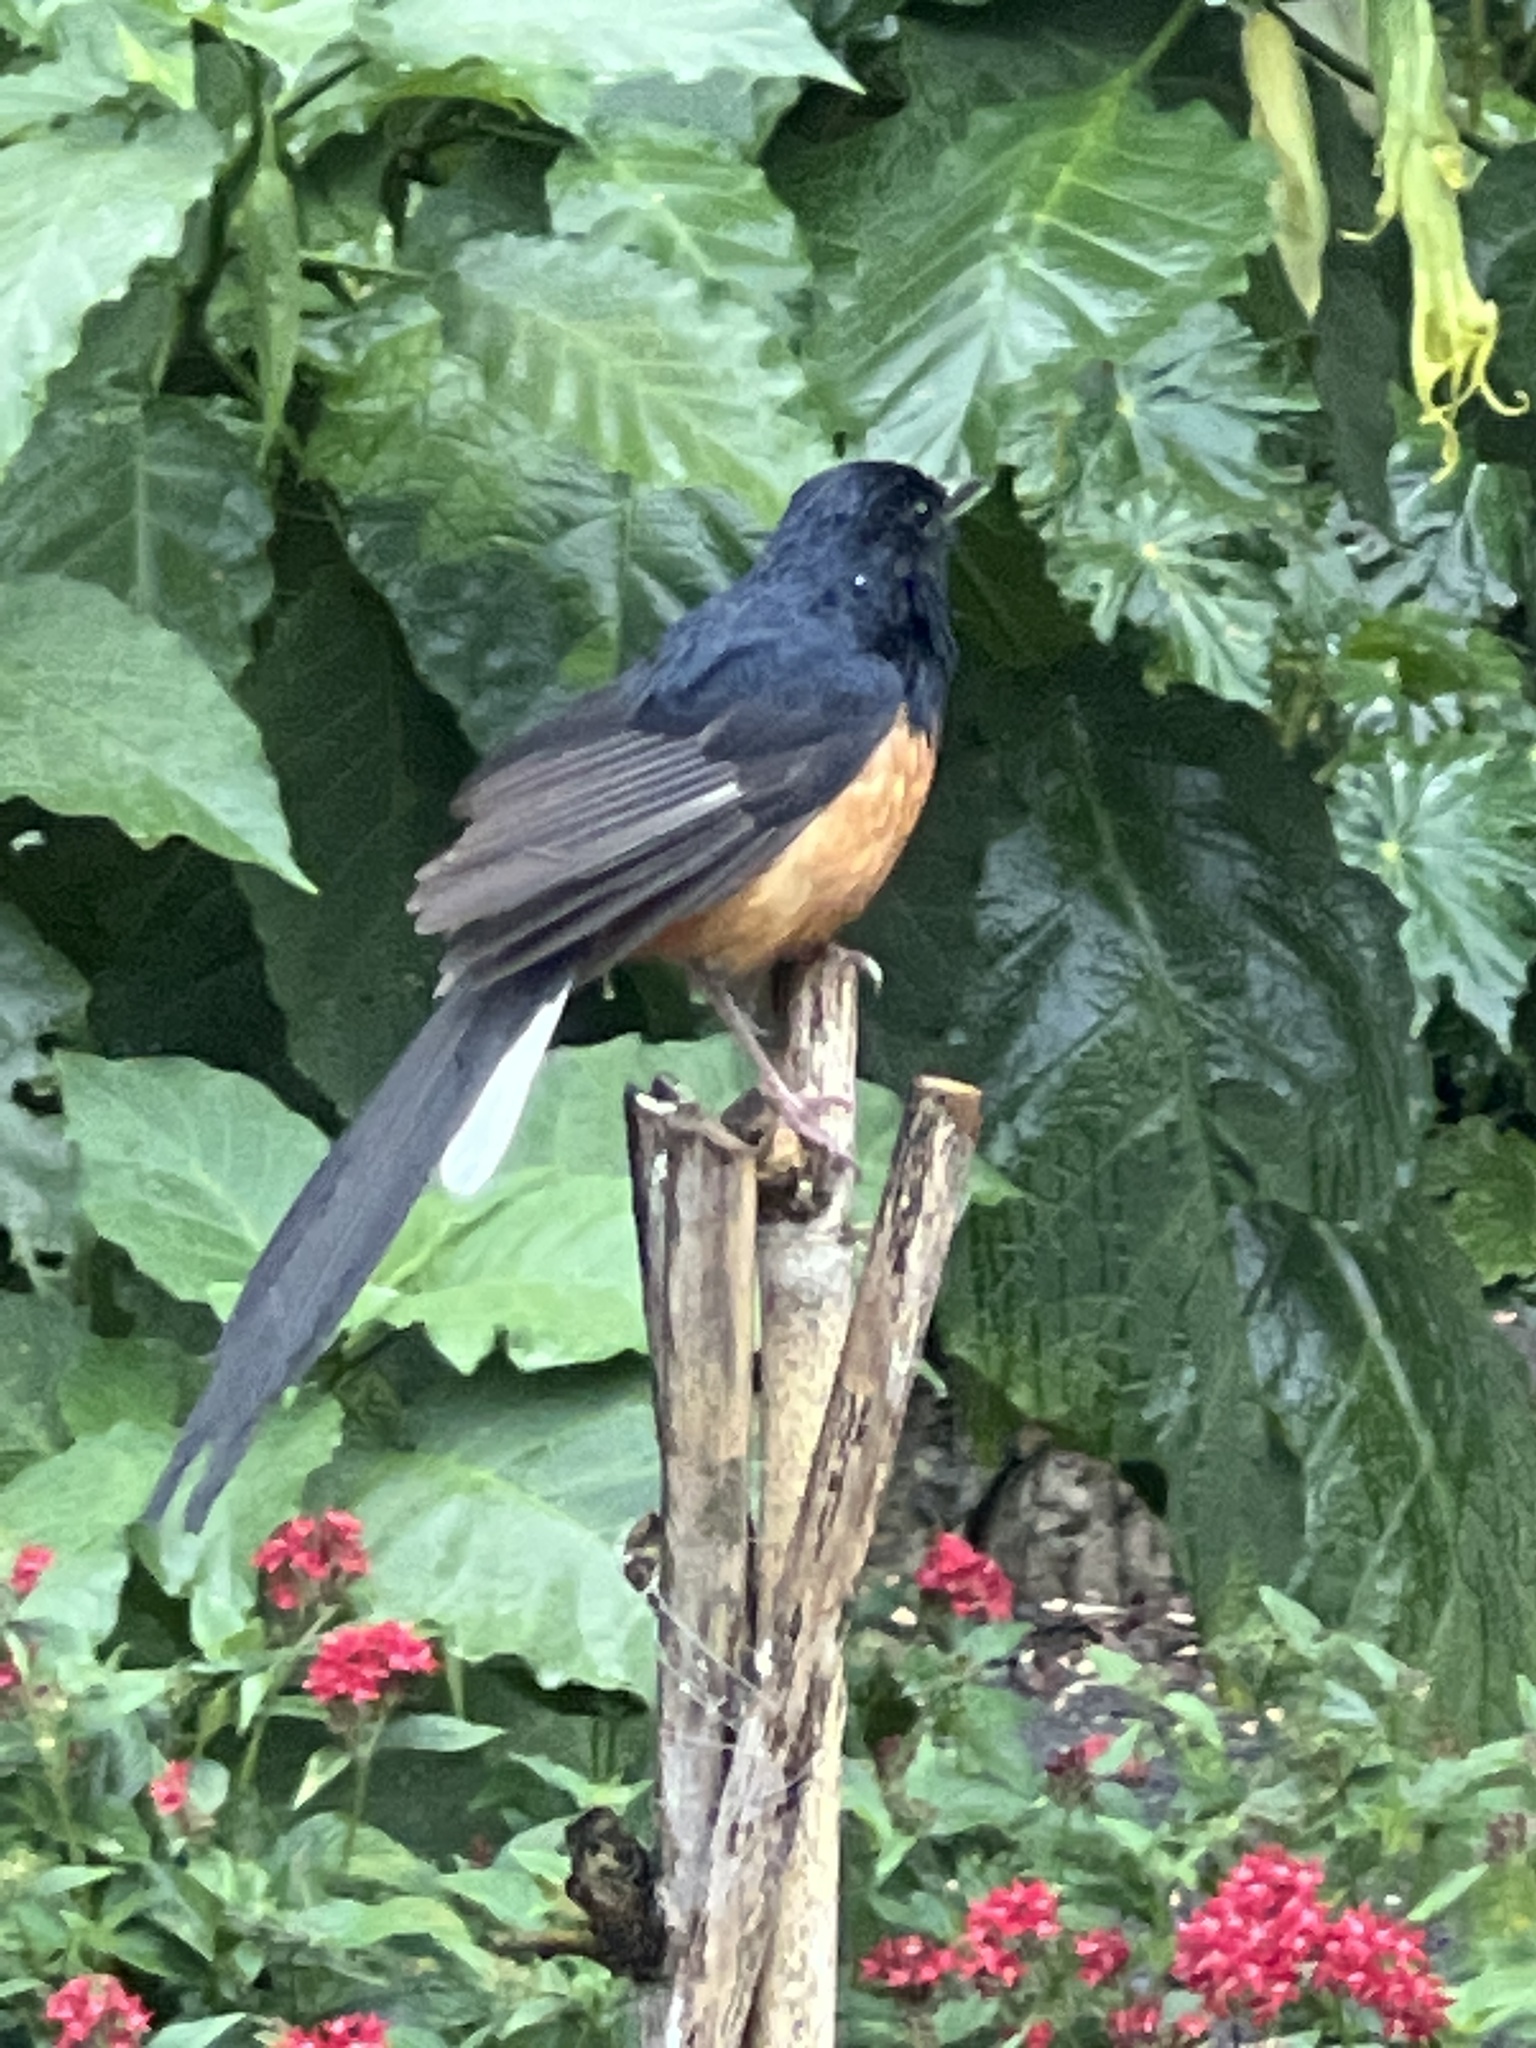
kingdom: Animalia
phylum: Chordata
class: Aves
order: Passeriformes
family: Muscicapidae
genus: Copsychus
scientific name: Copsychus malabaricus
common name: White-rumped shama
